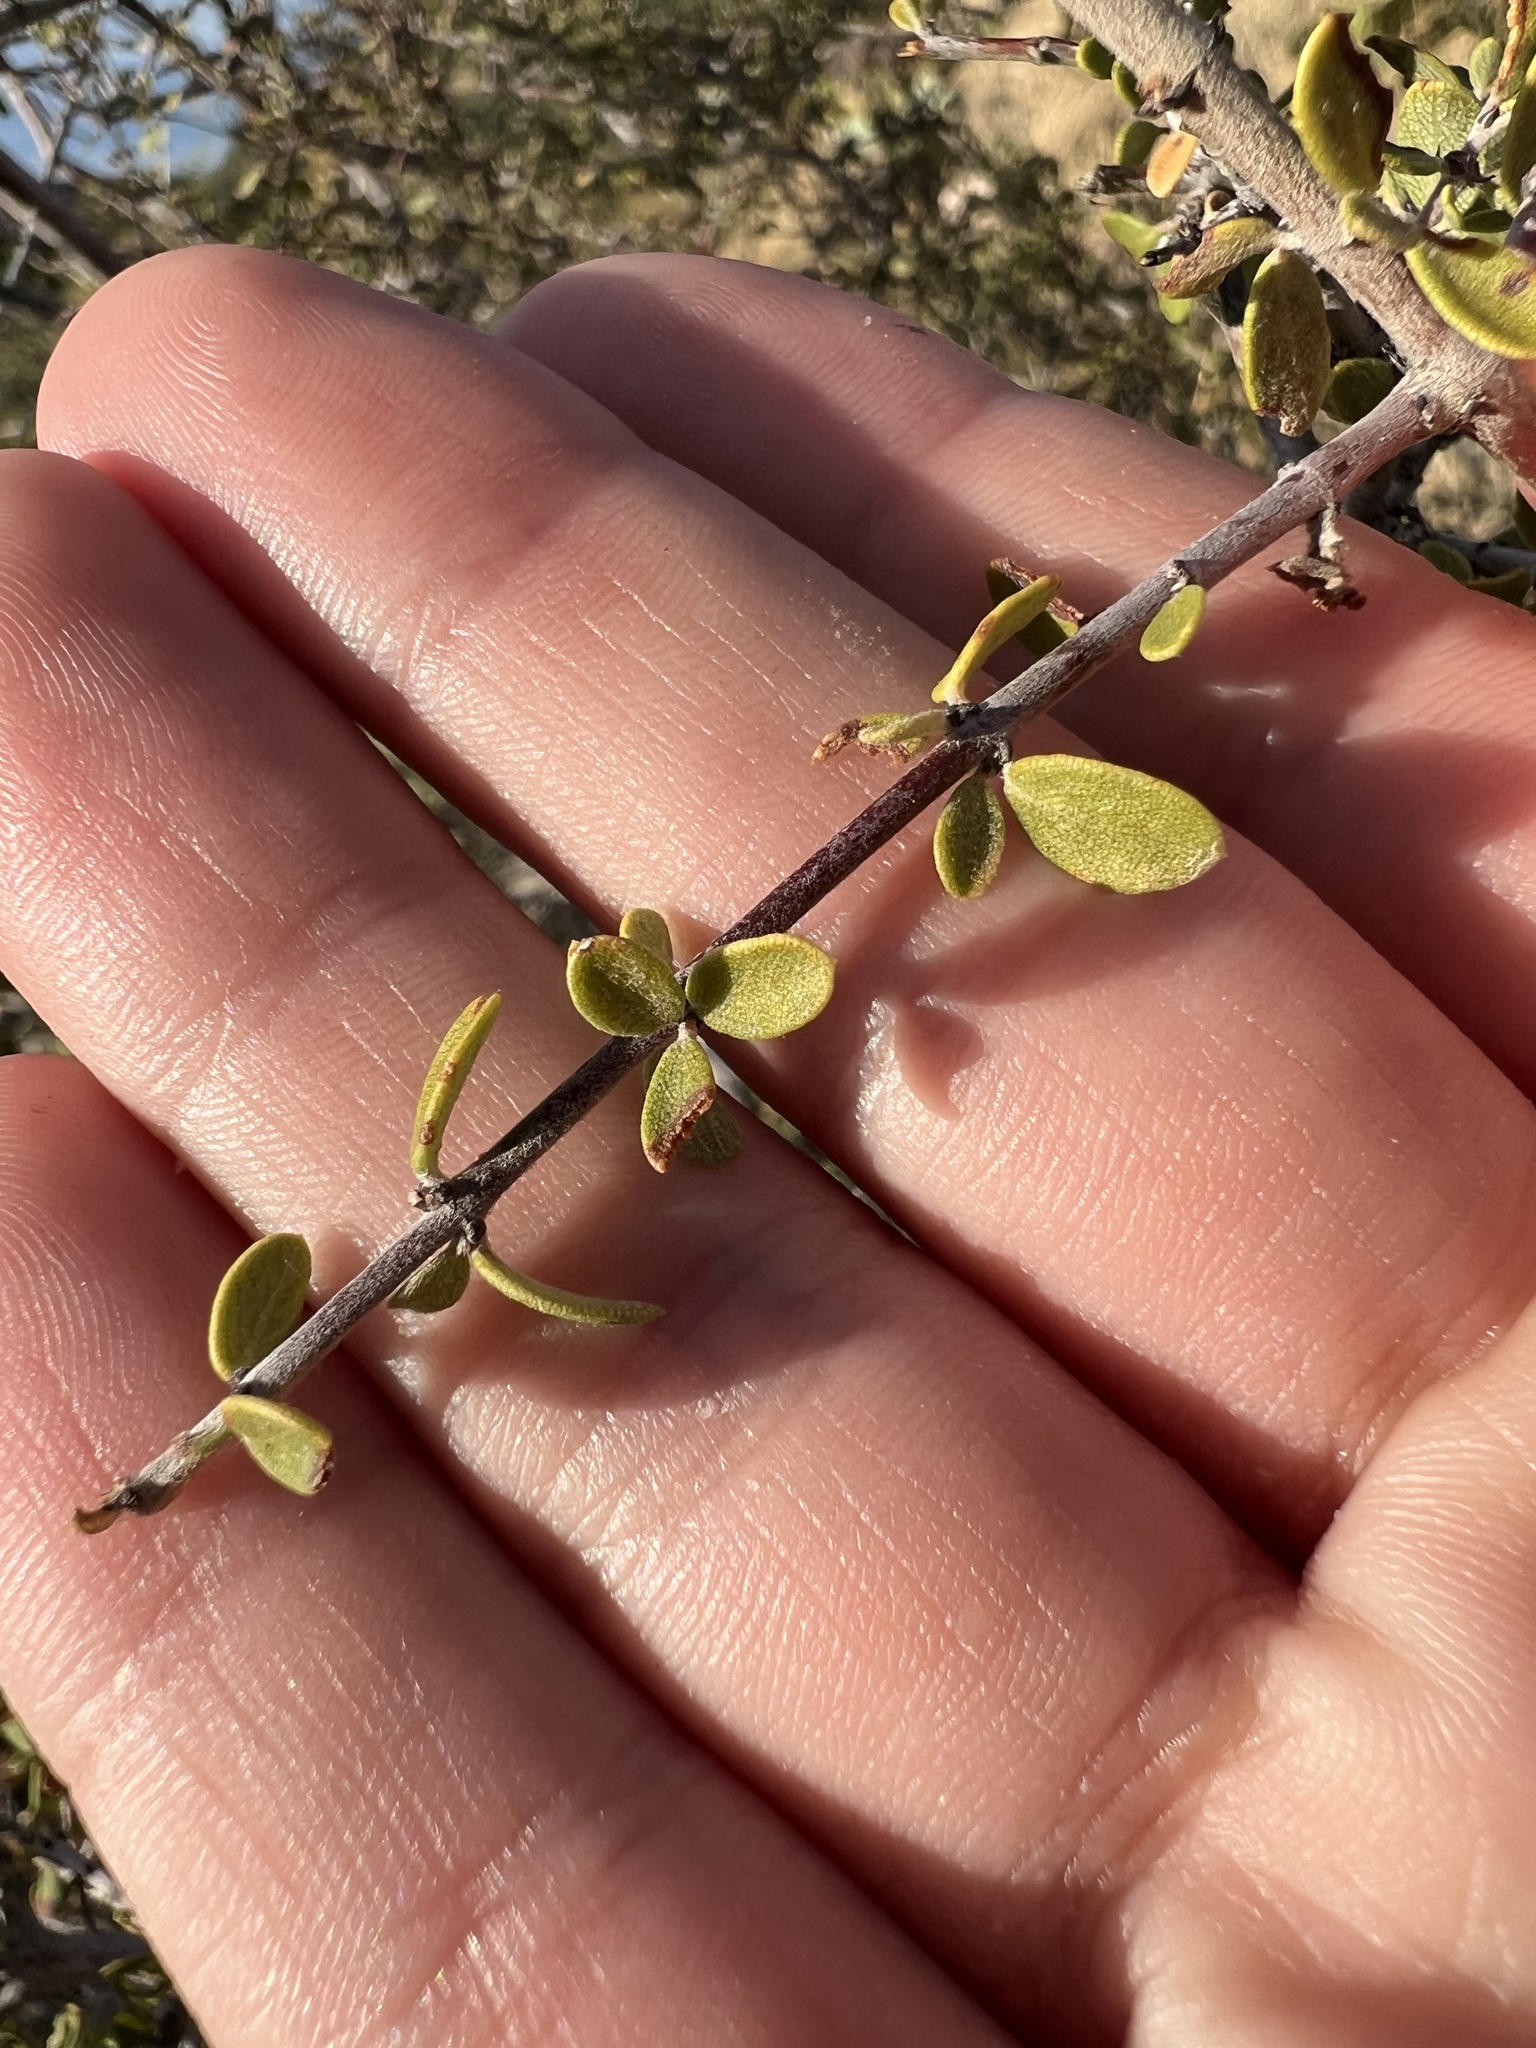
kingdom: Plantae
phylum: Tracheophyta
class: Magnoliopsida
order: Rosales
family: Rhamnaceae
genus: Ceanothus
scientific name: Ceanothus pauciflorus
